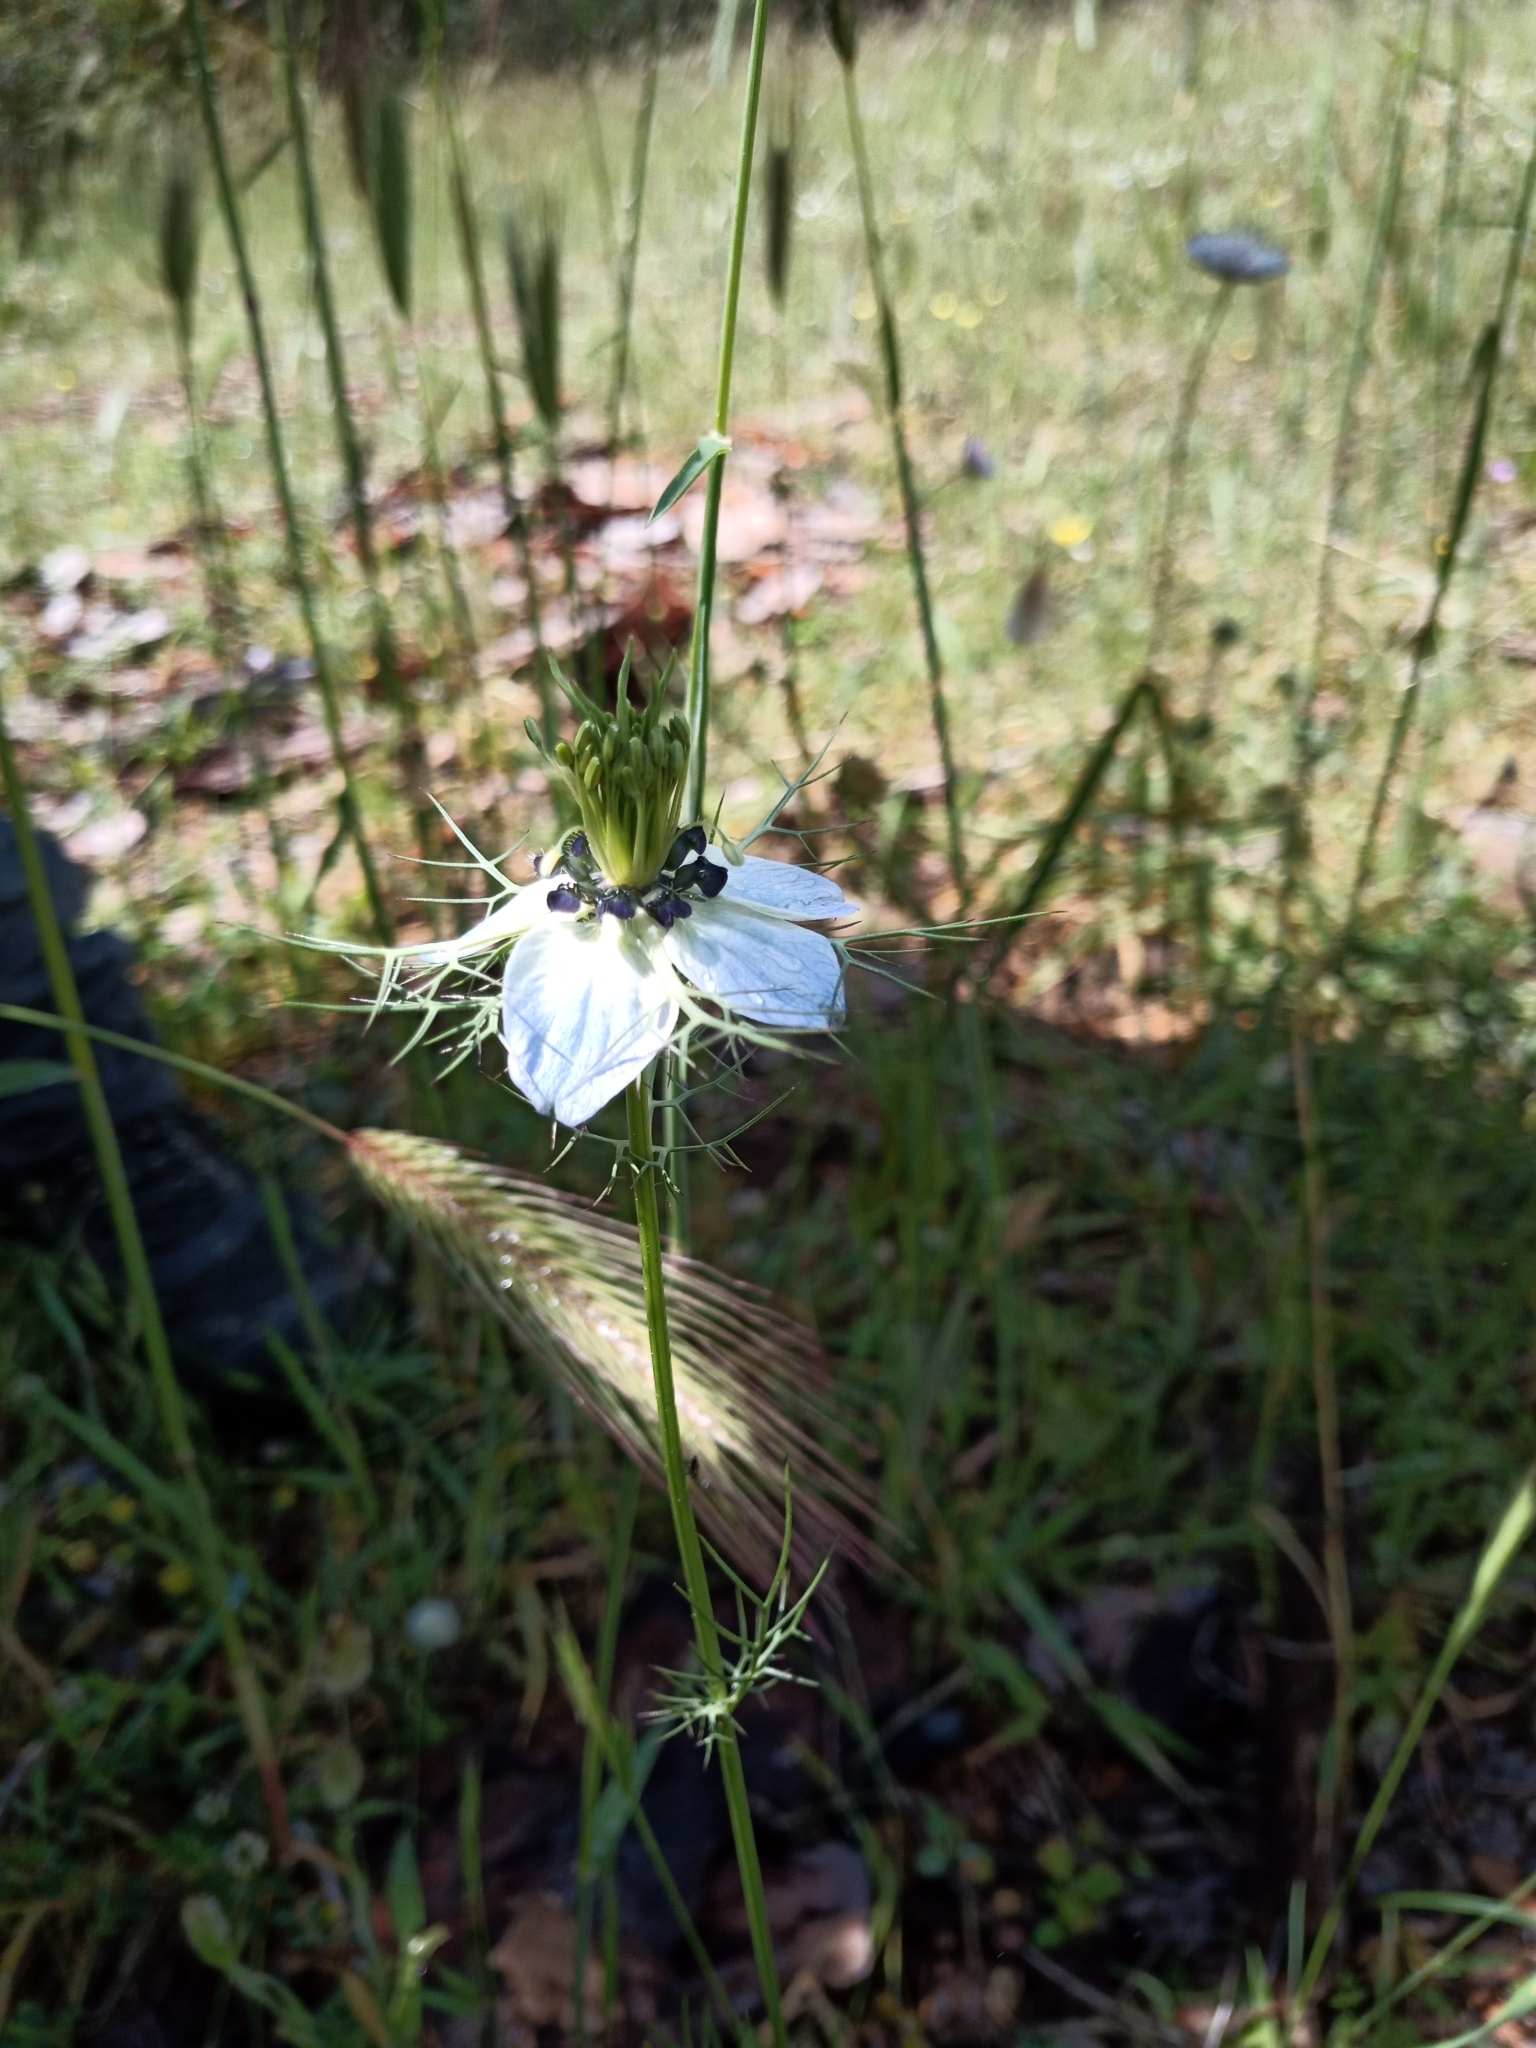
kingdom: Plantae
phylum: Tracheophyta
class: Magnoliopsida
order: Ranunculales
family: Ranunculaceae
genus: Nigella
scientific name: Nigella damascena
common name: Love-in-a-mist
